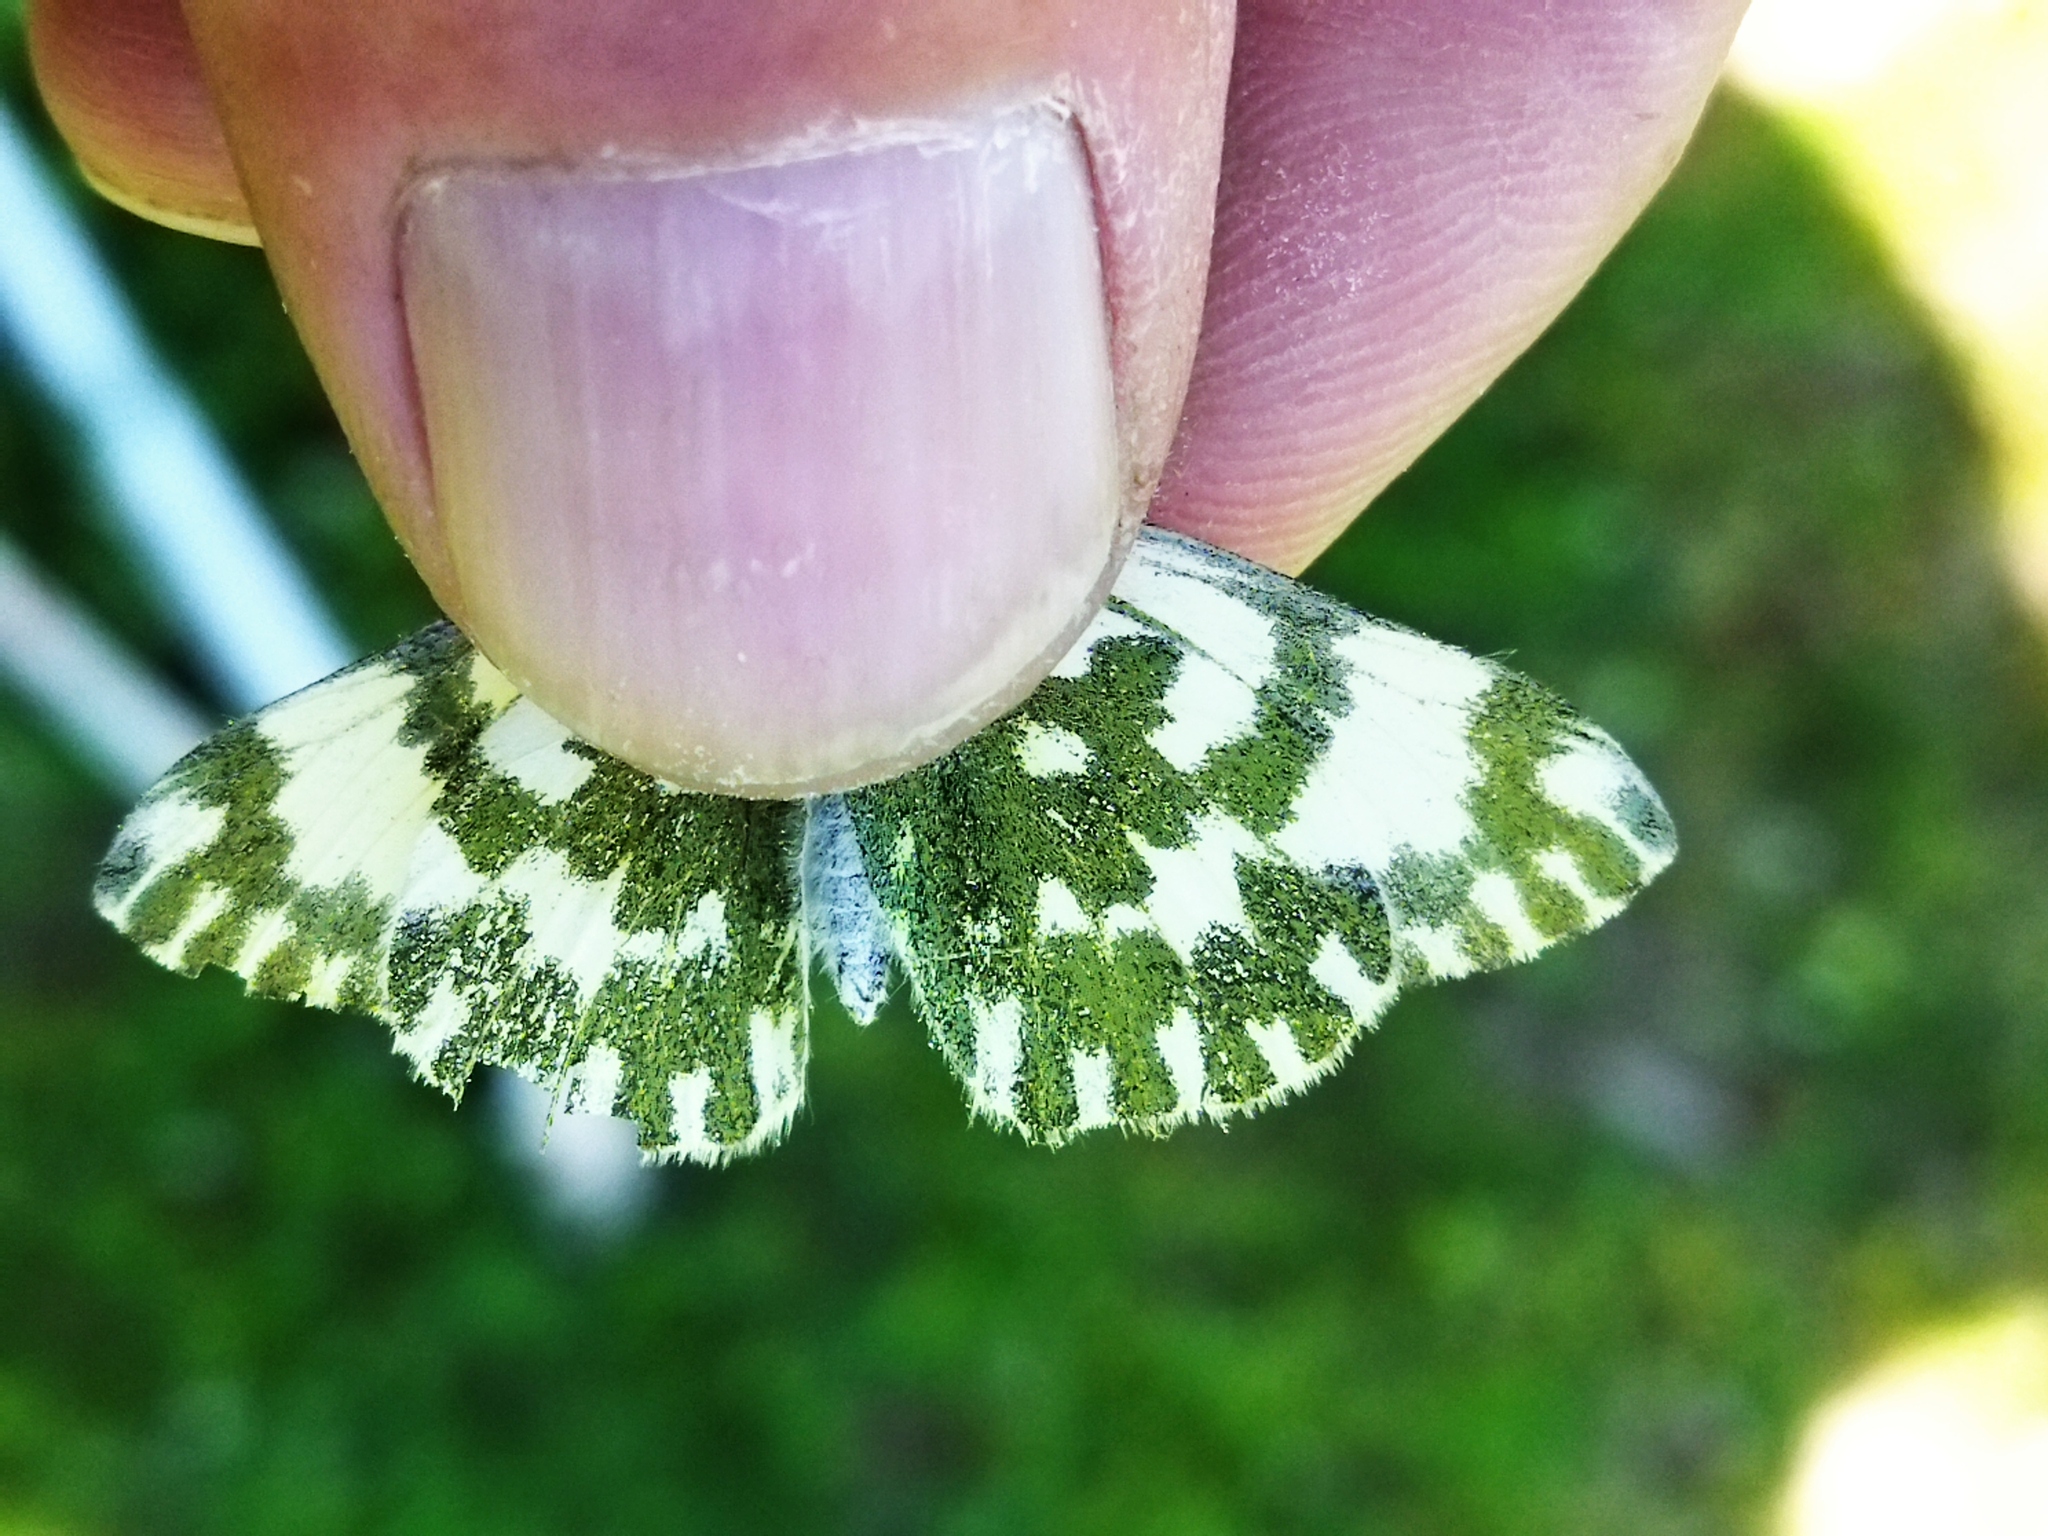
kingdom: Animalia
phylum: Arthropoda
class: Insecta
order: Lepidoptera
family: Pieridae
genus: Pontia
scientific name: Pontia edusa
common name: Eastern bath white
